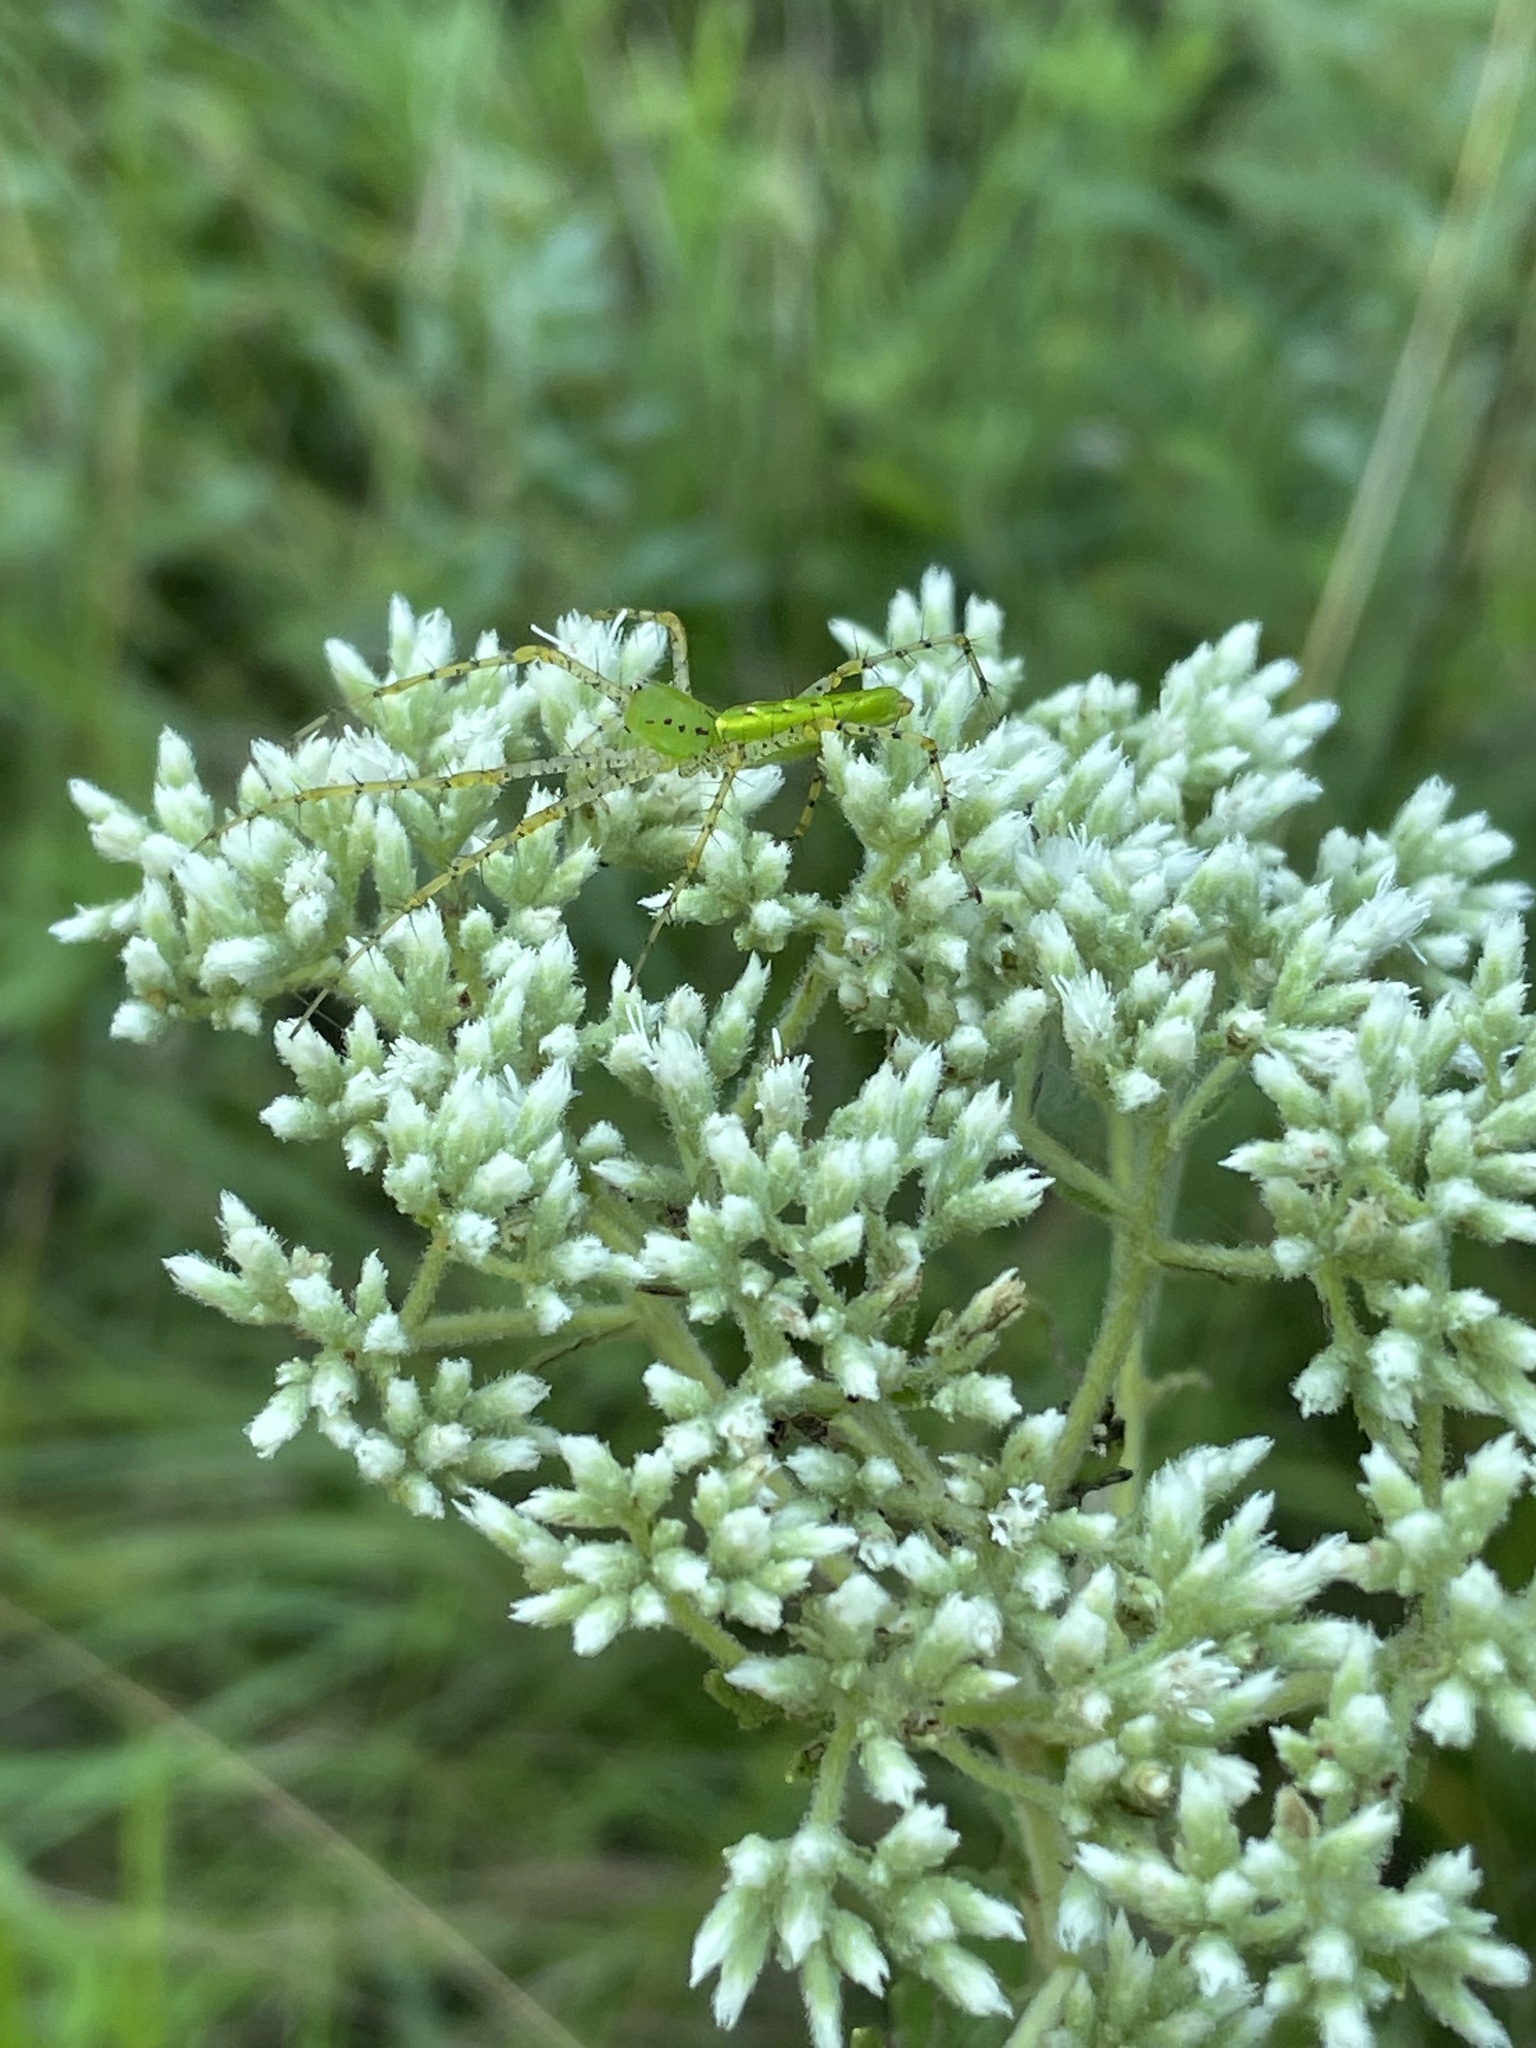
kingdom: Plantae
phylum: Tracheophyta
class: Magnoliopsida
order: Asterales
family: Asteraceae
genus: Eupatorium
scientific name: Eupatorium rotundifolium
